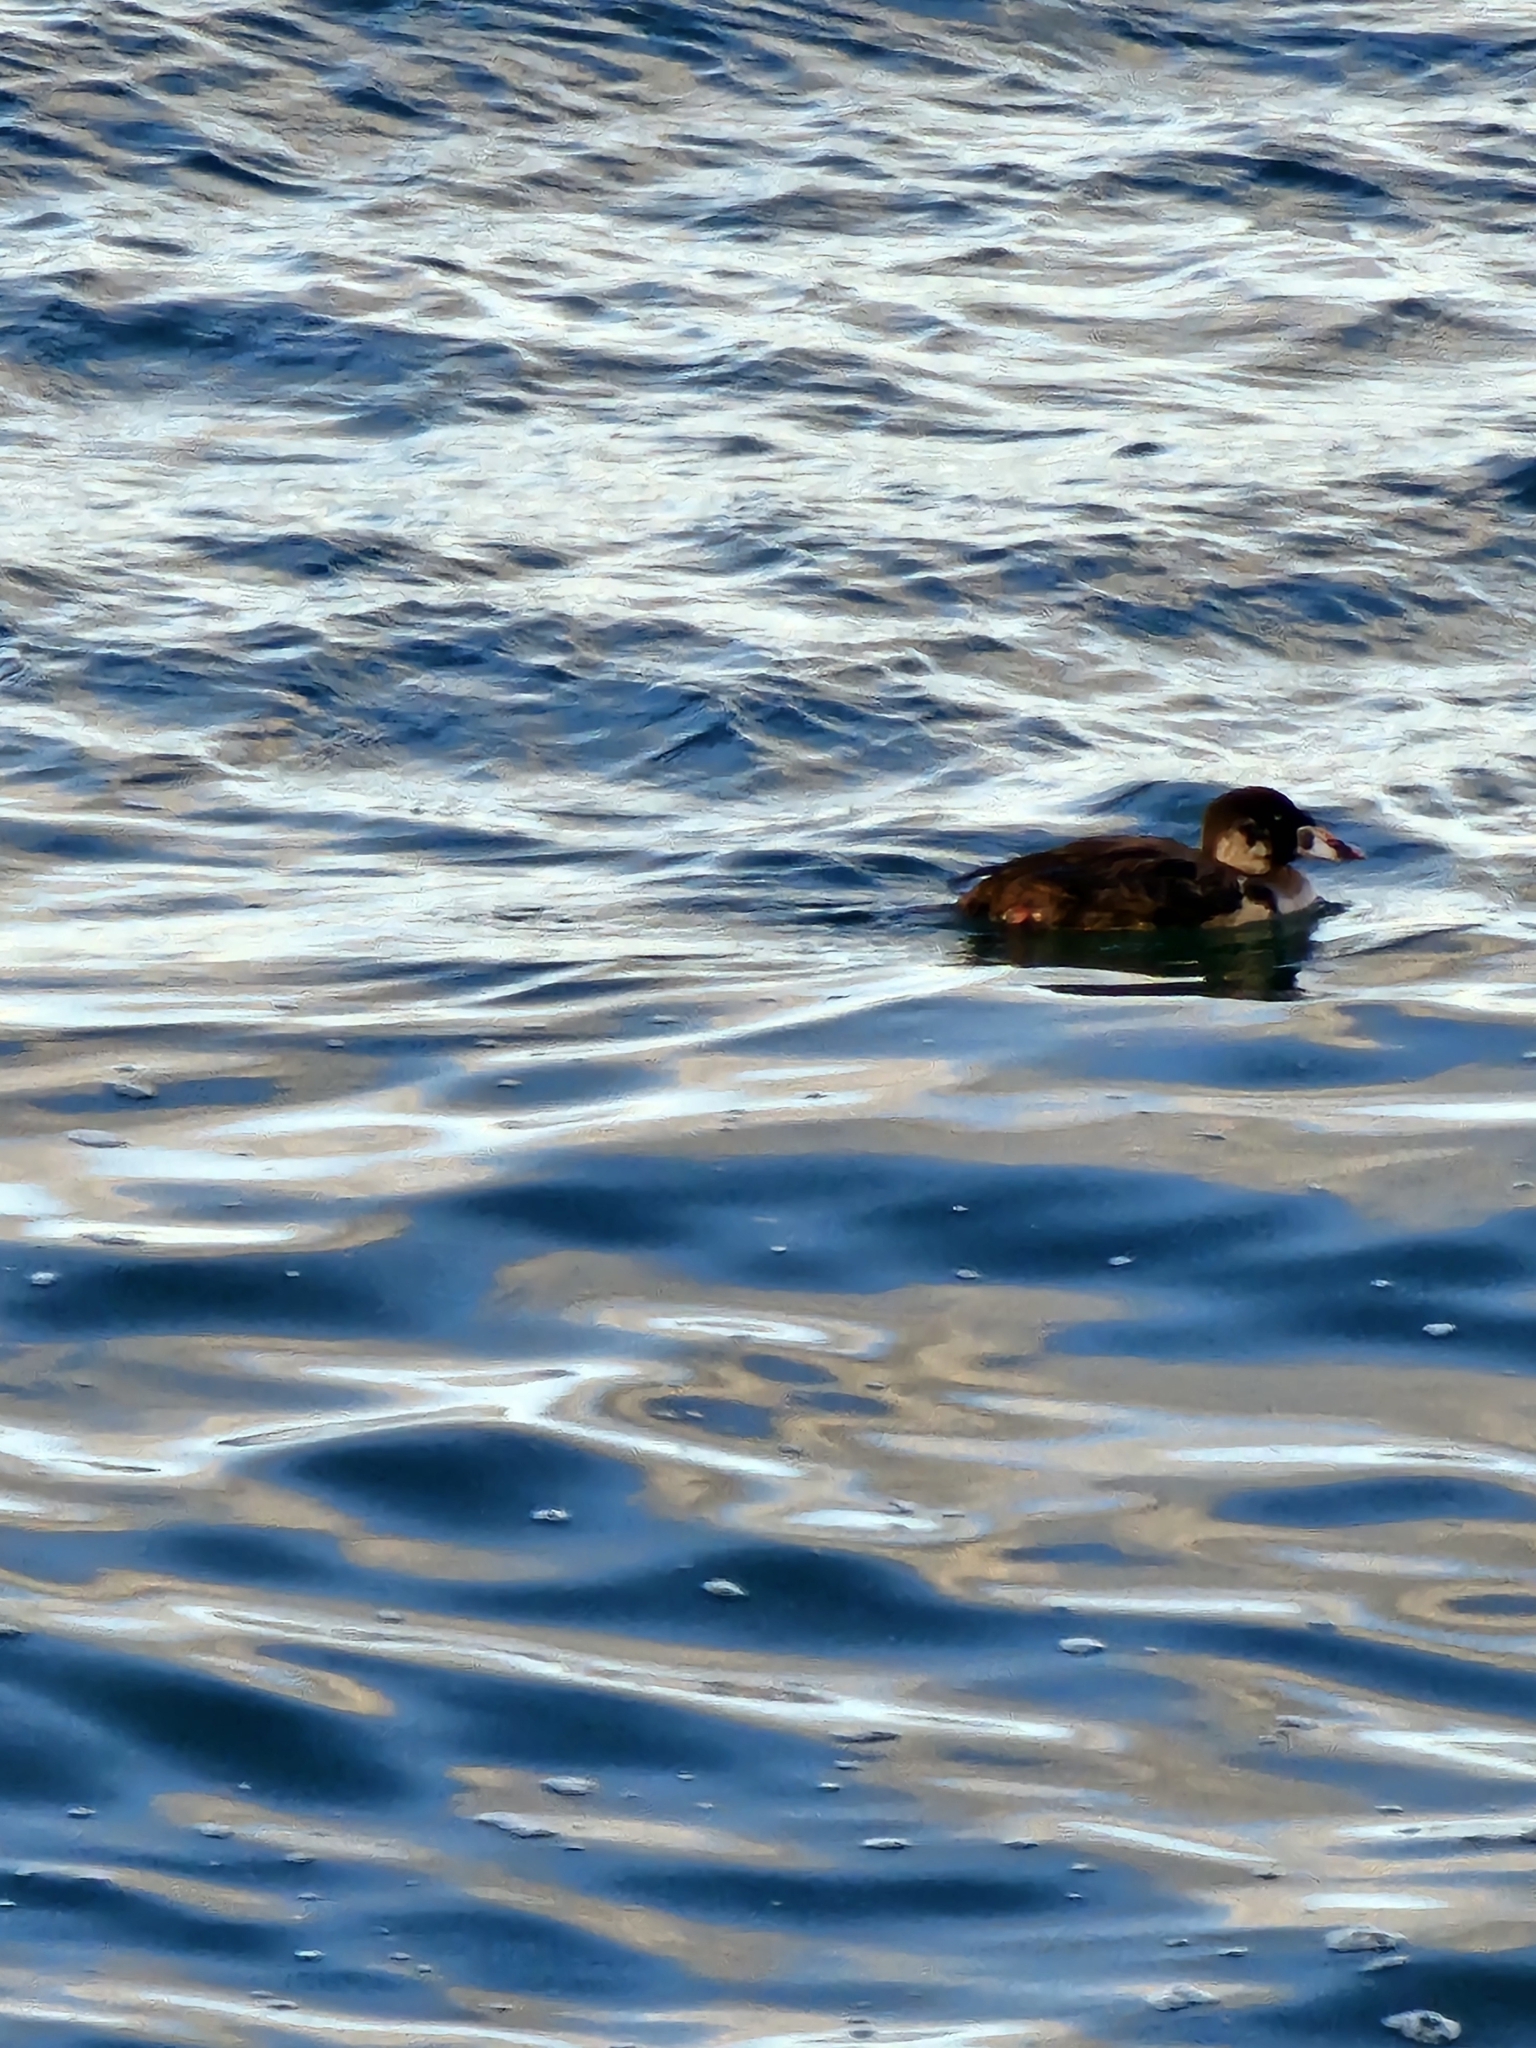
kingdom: Animalia
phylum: Chordata
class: Aves
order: Anseriformes
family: Anatidae
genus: Melanitta
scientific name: Melanitta perspicillata
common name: Surf scoter
